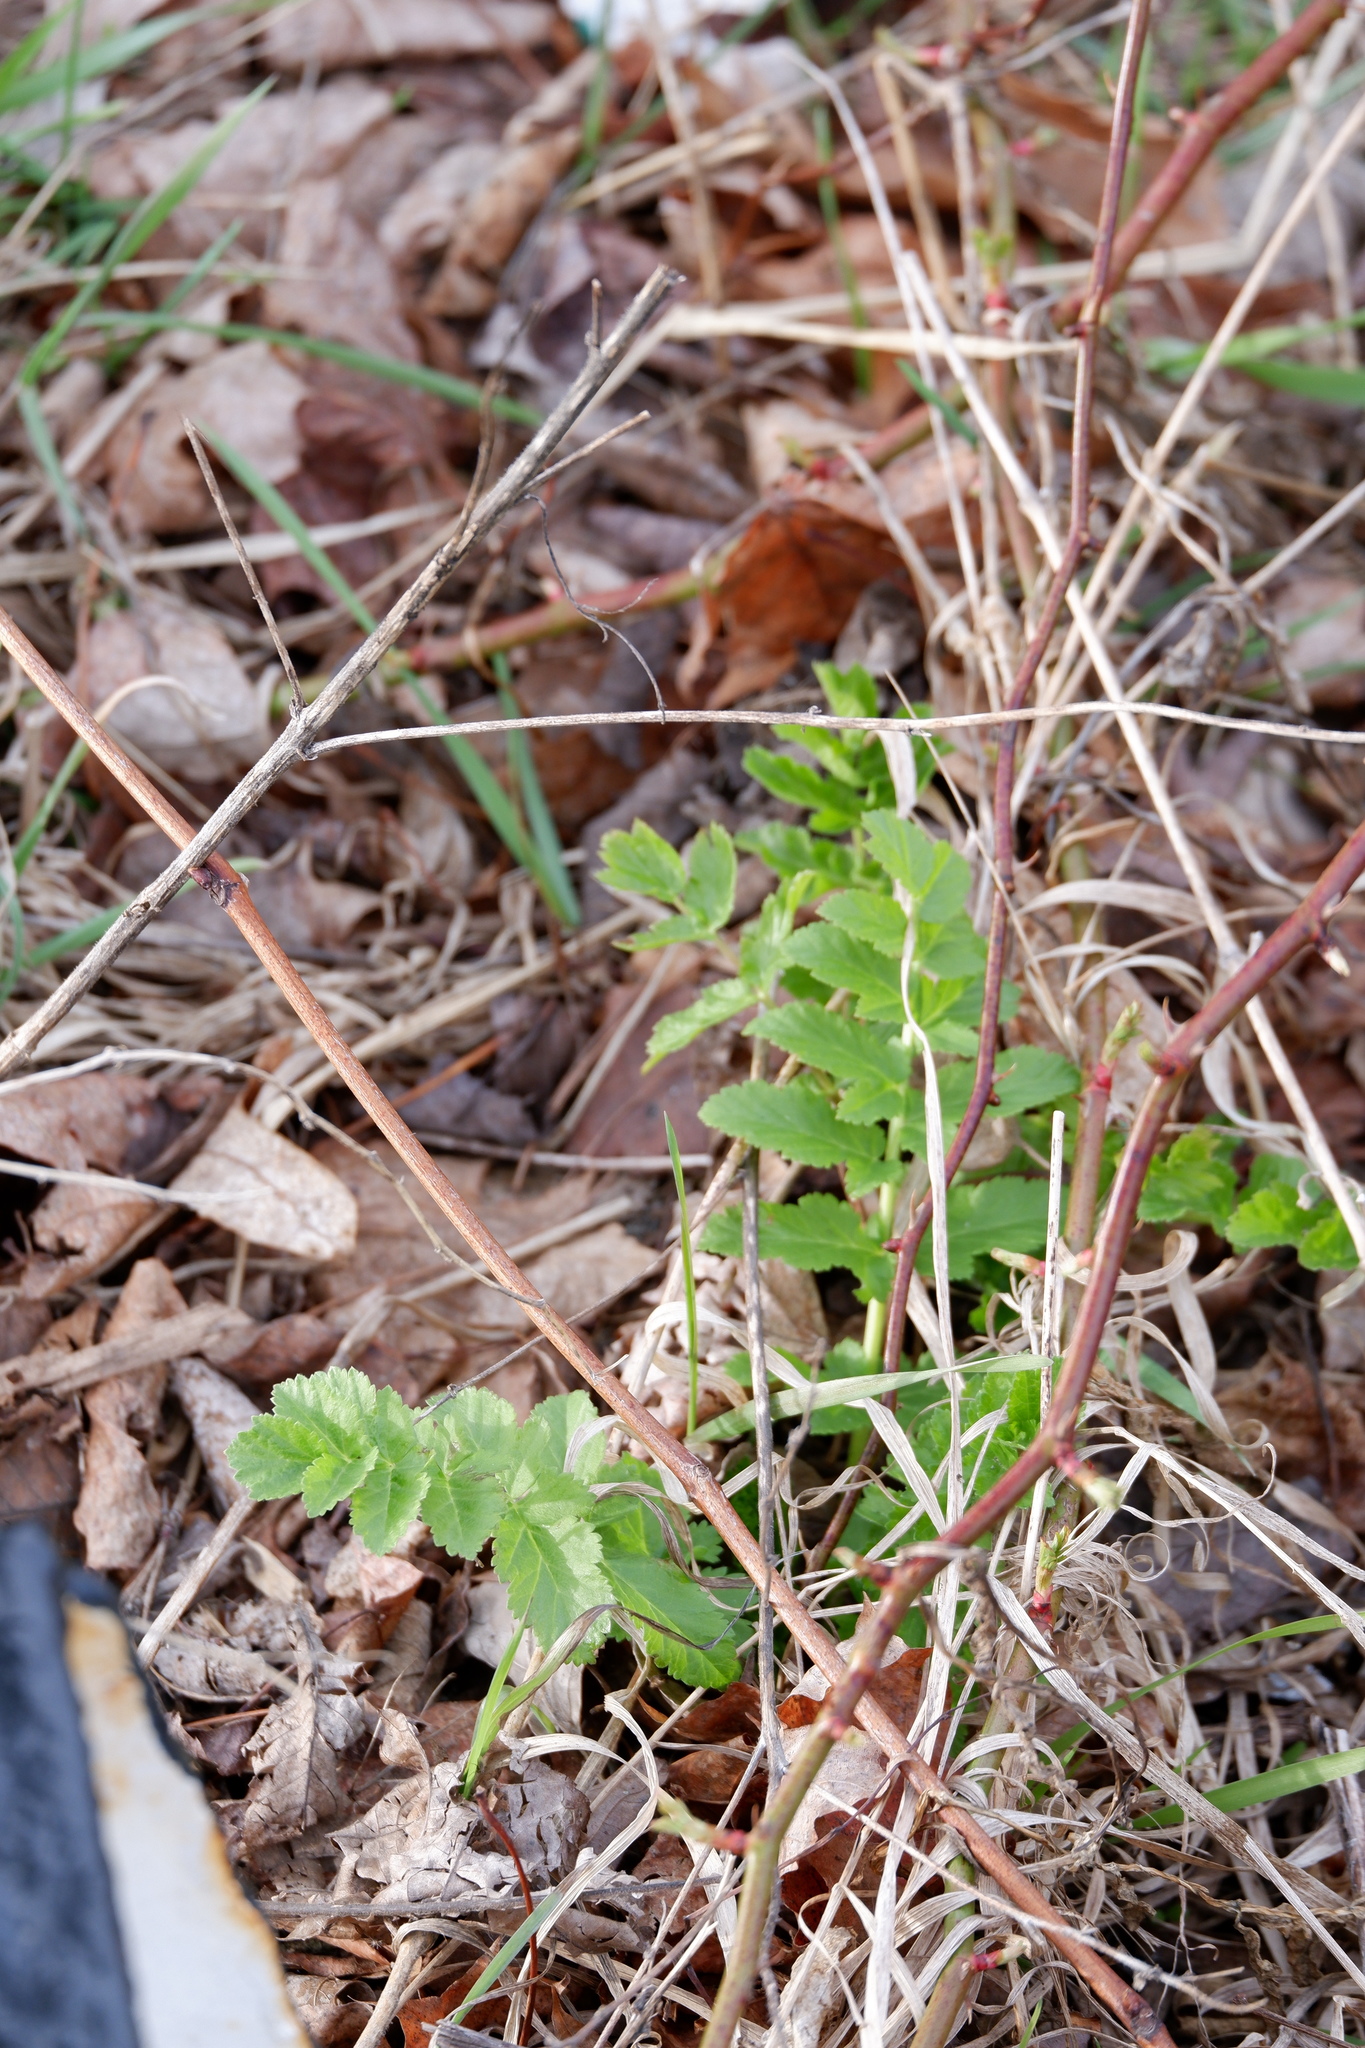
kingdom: Plantae
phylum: Tracheophyta
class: Magnoliopsida
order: Apiales
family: Apiaceae
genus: Pastinaca
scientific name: Pastinaca sativa
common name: Wild parsnip
